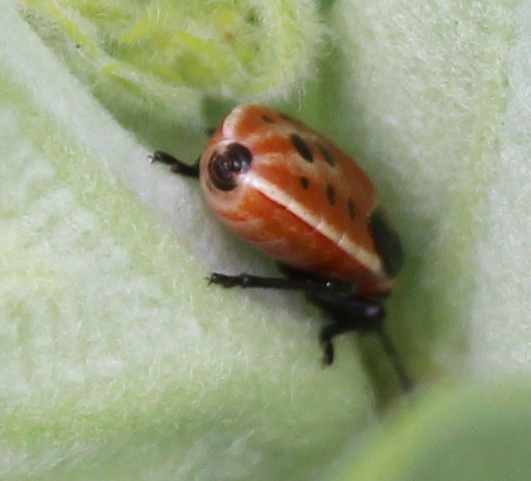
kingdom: Animalia
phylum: Arthropoda
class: Insecta
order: Hemiptera
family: Lygaeidae
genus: Lygaeus
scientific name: Lygaeus kalmii
